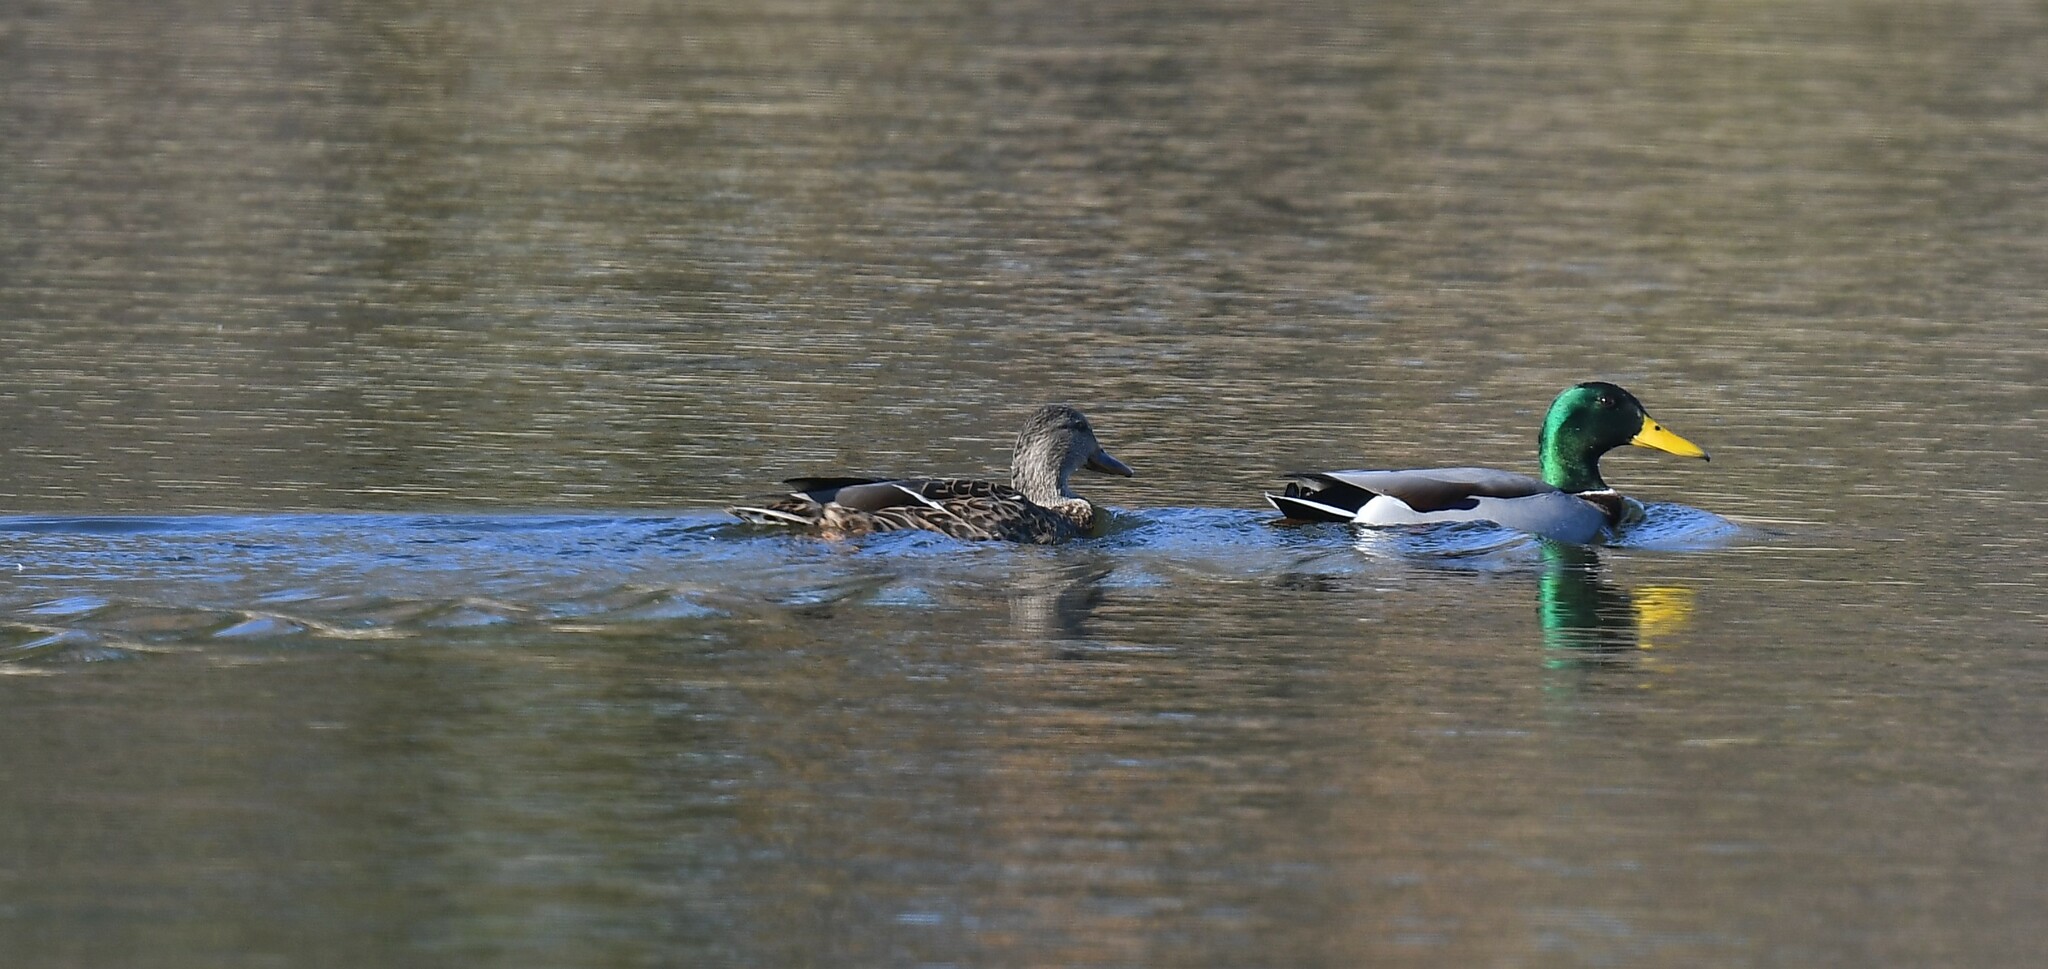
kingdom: Animalia
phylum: Chordata
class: Aves
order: Anseriformes
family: Anatidae
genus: Anas
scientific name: Anas platyrhynchos
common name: Mallard
